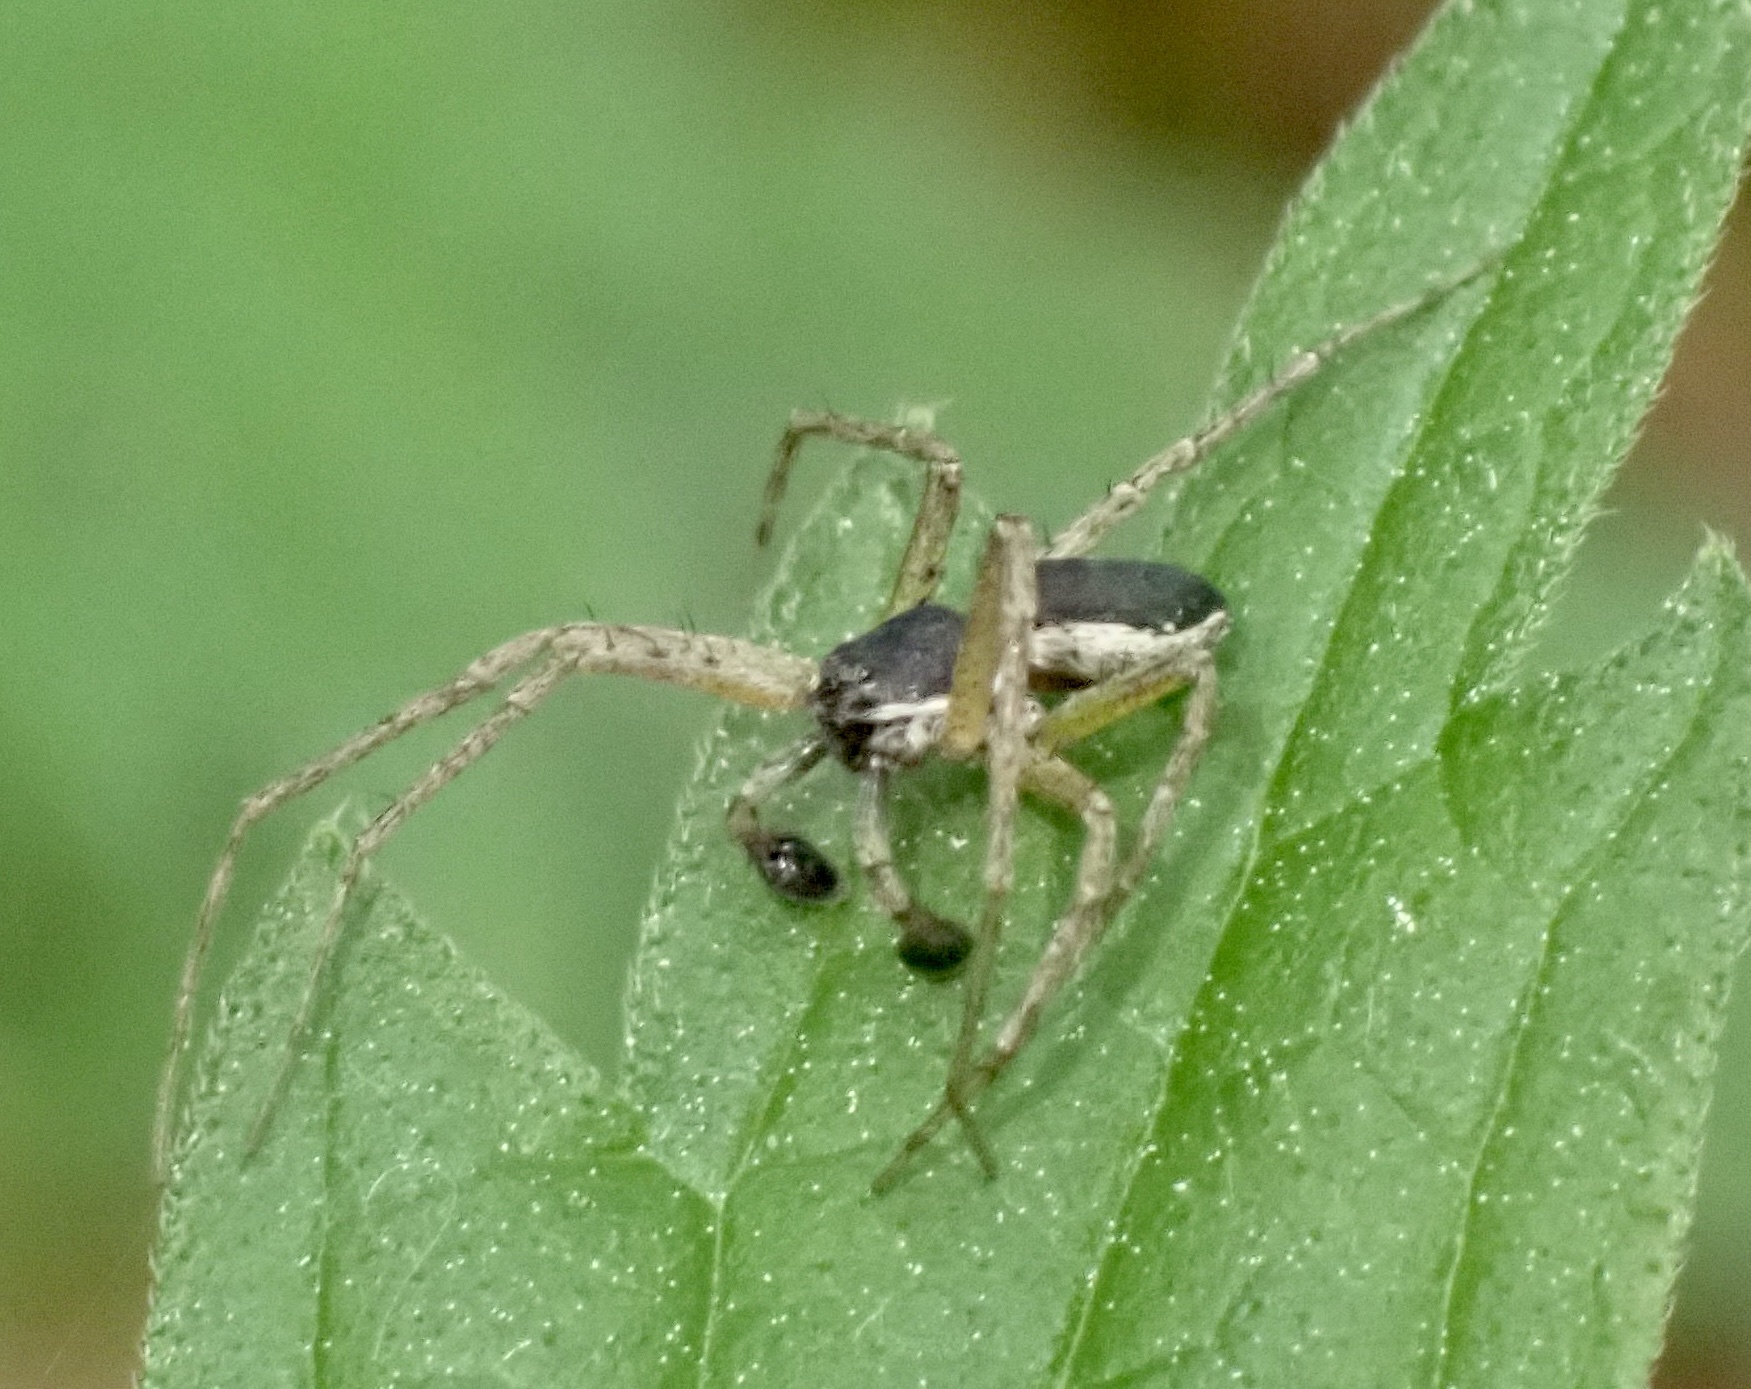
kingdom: Animalia
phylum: Arthropoda
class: Arachnida
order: Araneae
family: Philodromidae
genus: Philodromus
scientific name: Philodromus dispar
